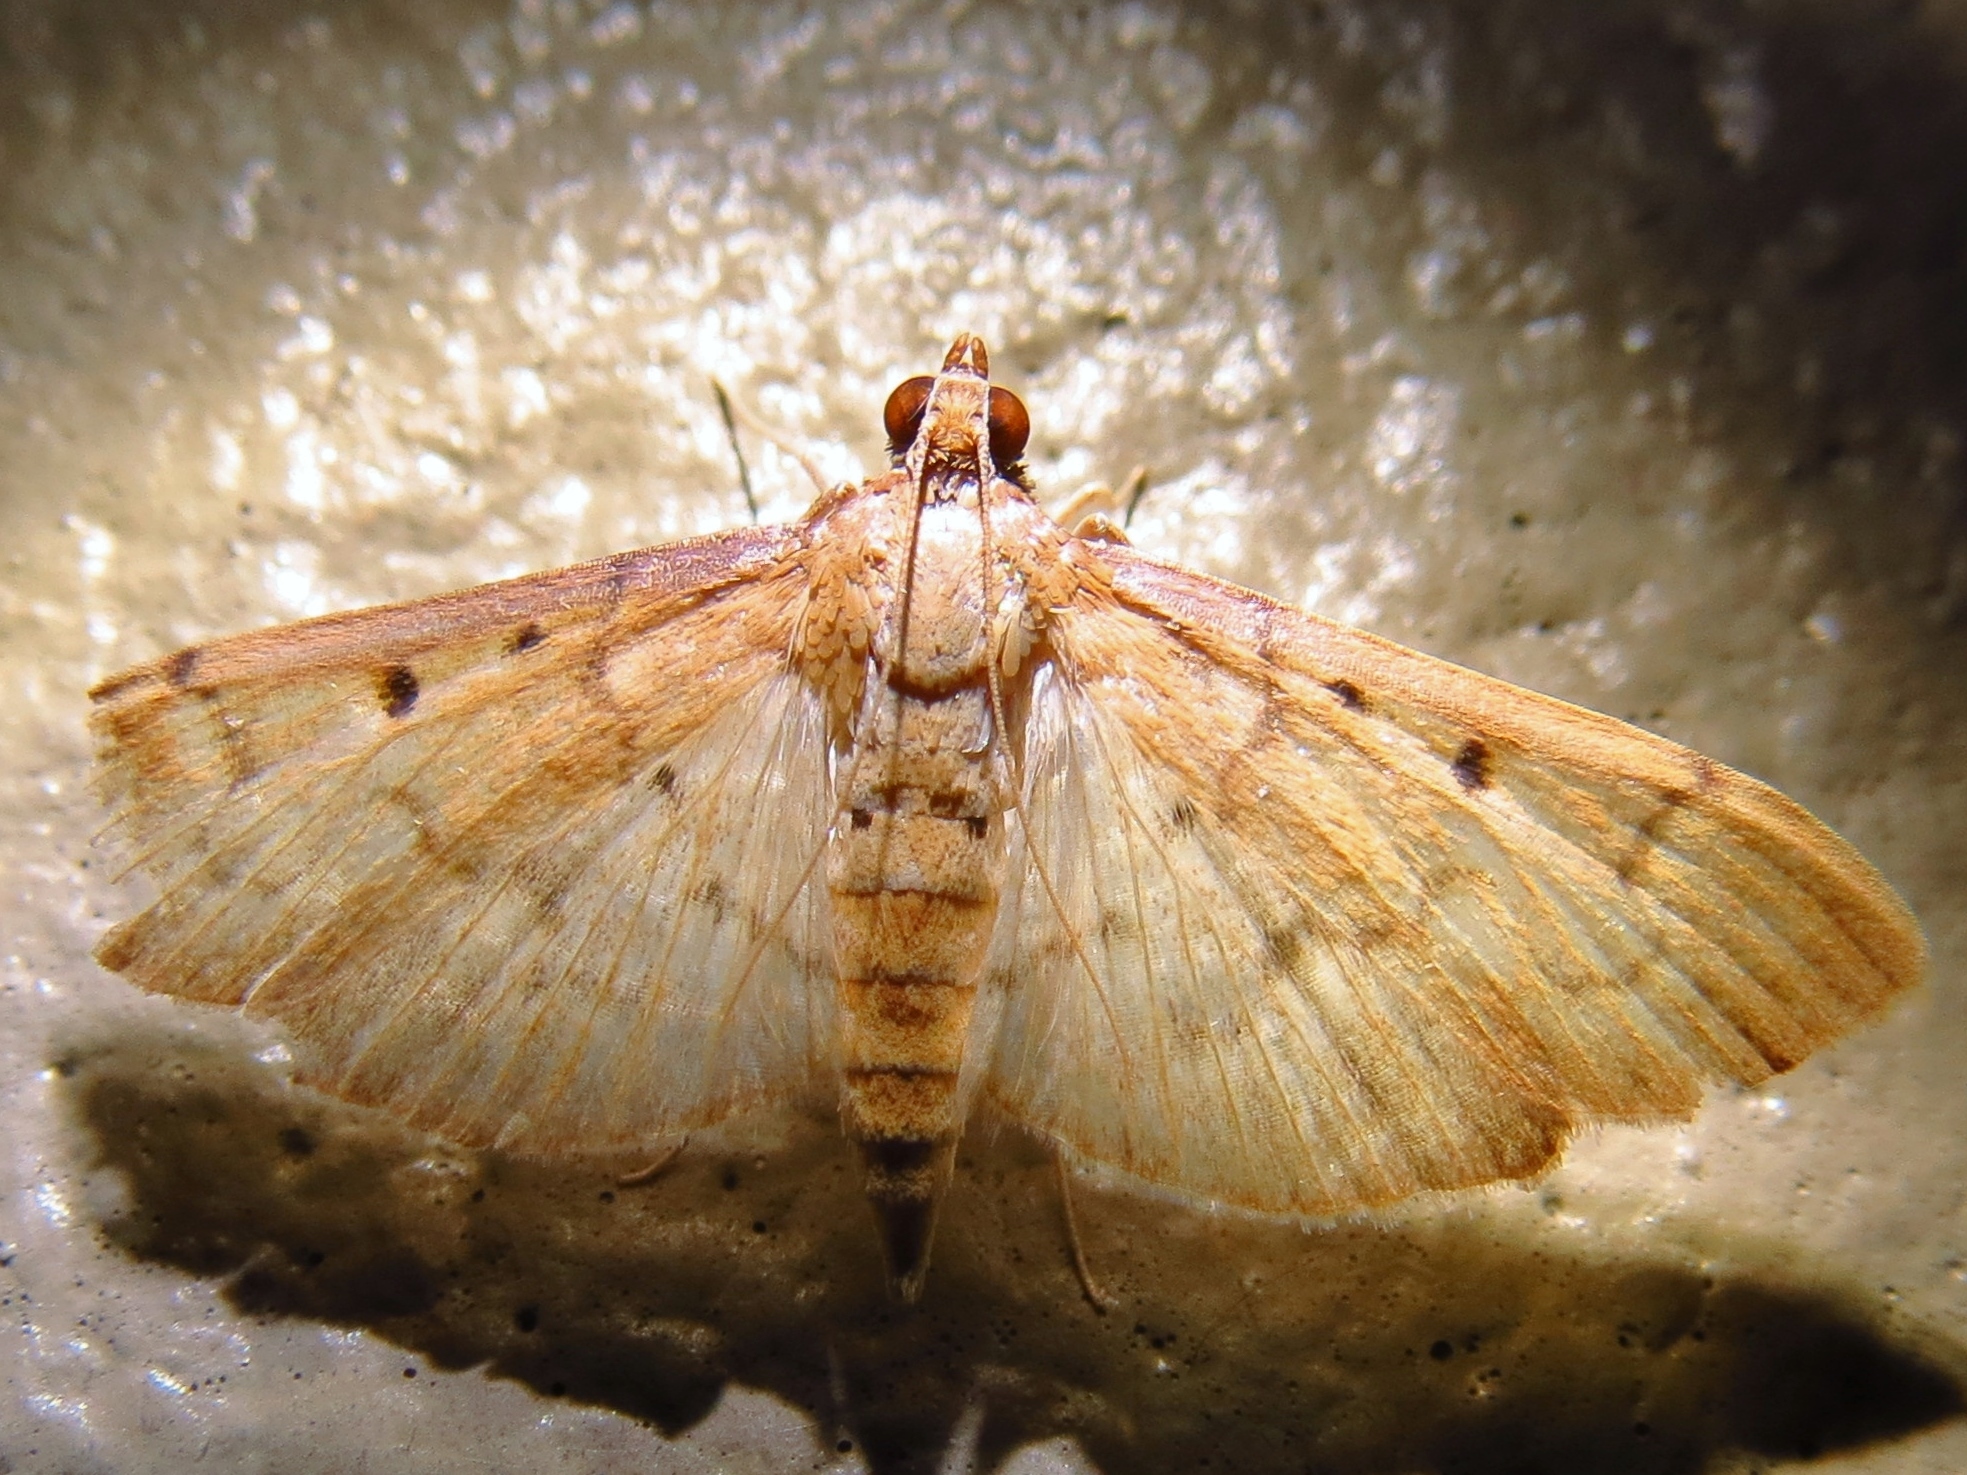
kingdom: Animalia
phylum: Arthropoda
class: Insecta
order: Lepidoptera
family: Crambidae
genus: Herpetogramma
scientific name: Herpetogramma bipunctalis
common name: Southern beet webworm
